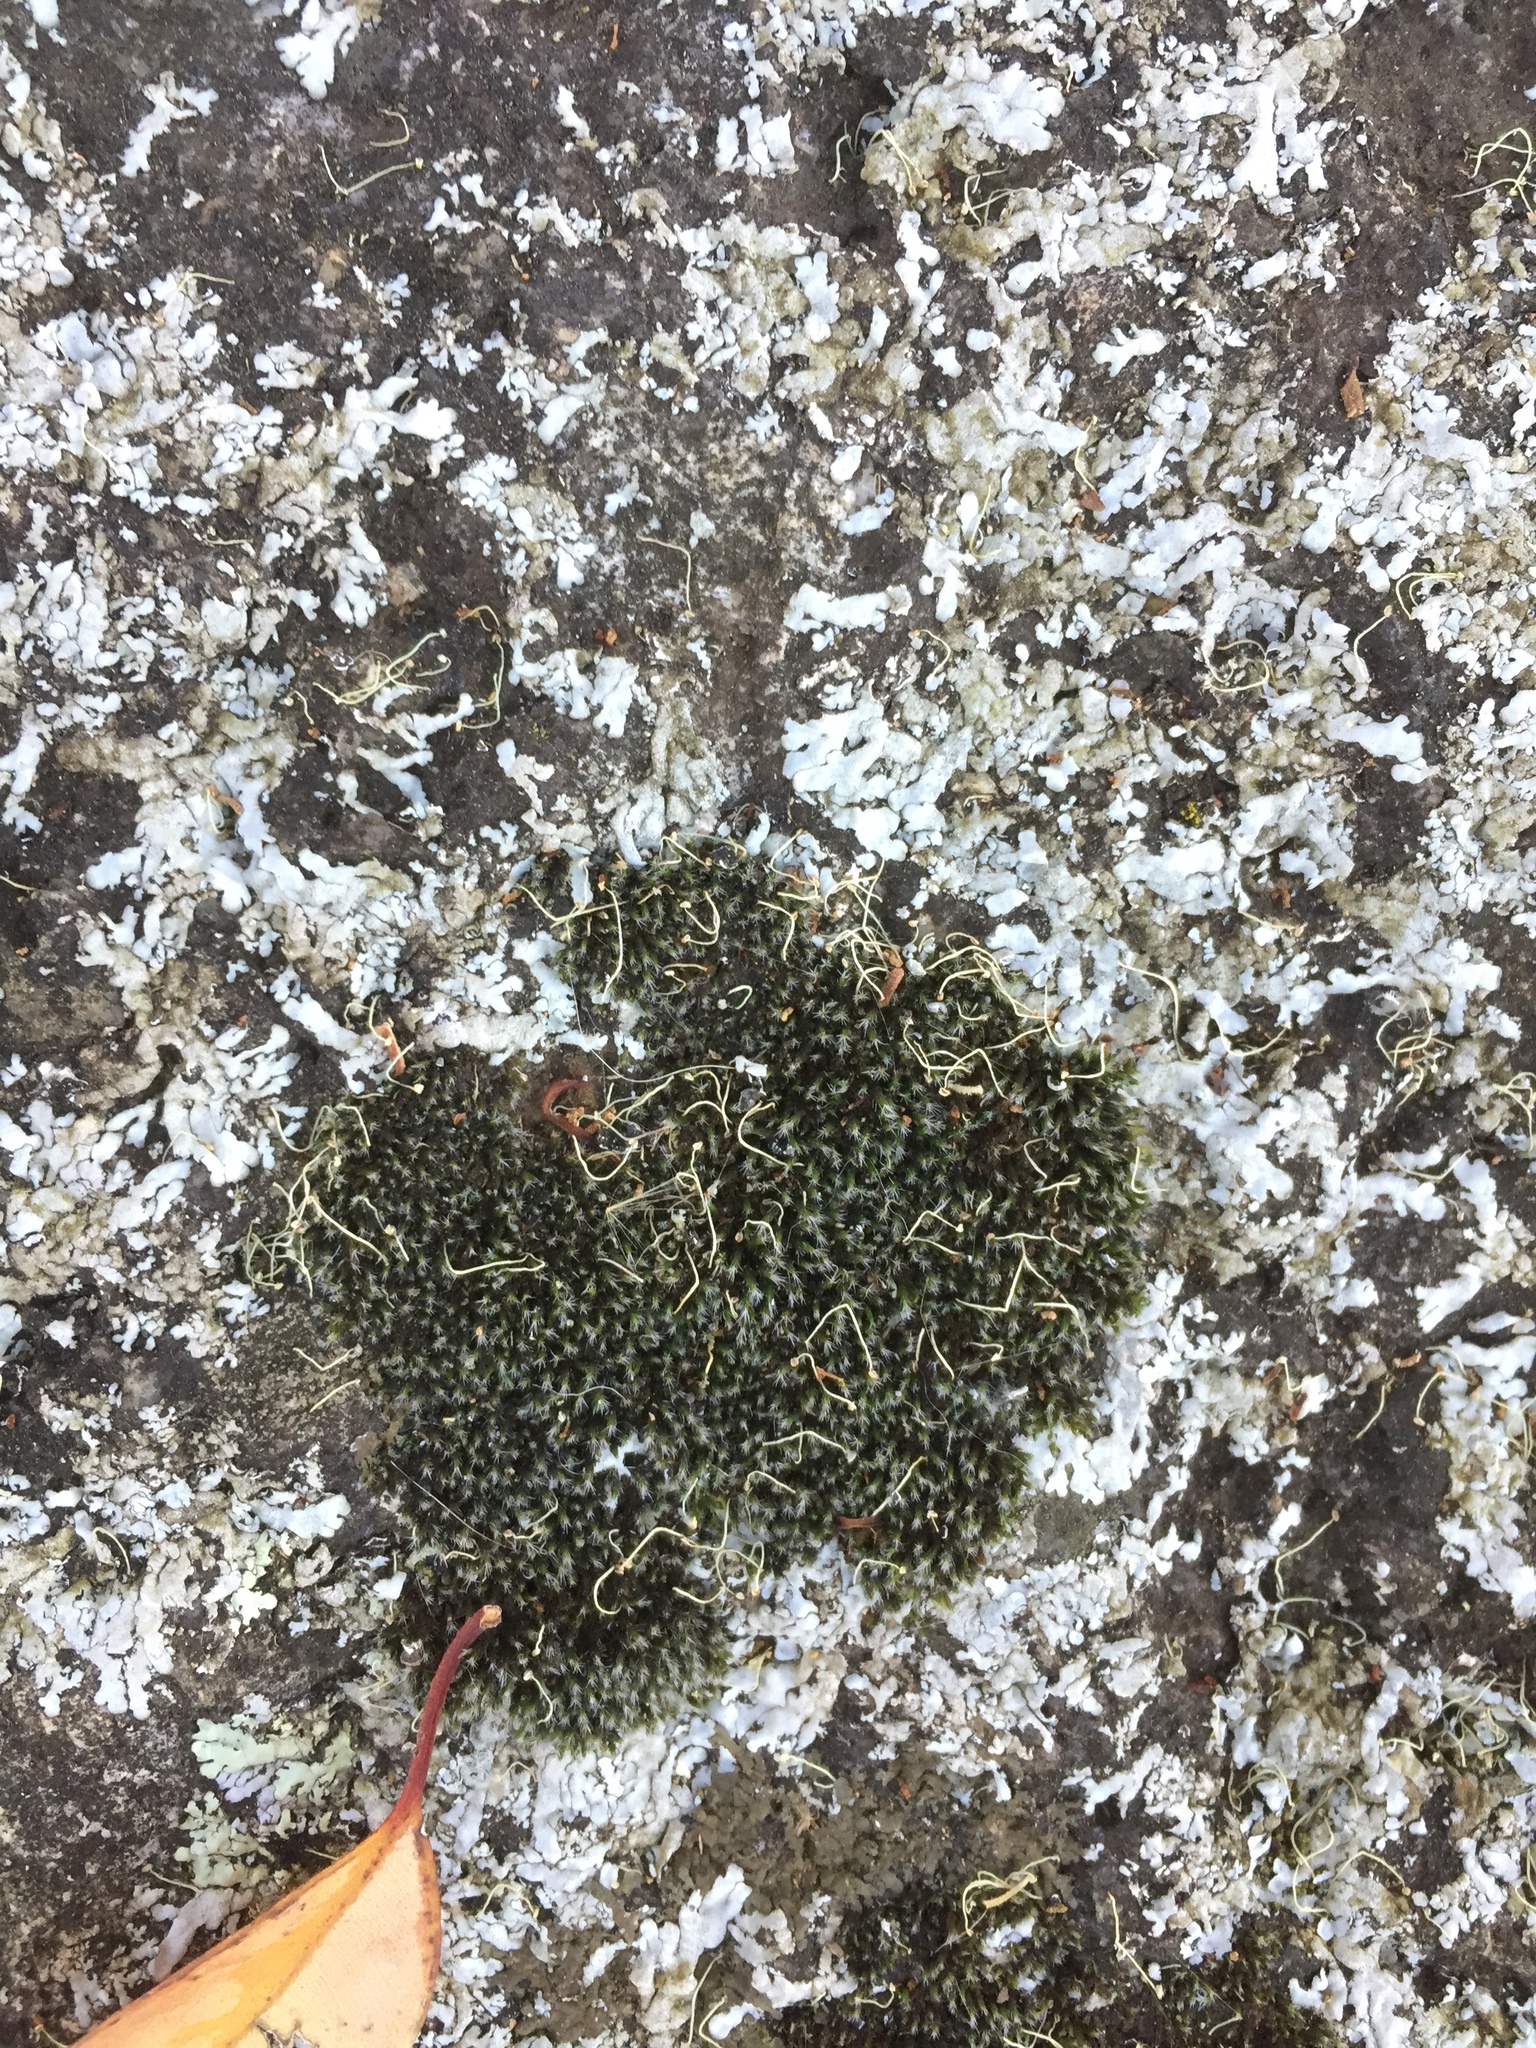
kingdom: Plantae
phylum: Bryophyta
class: Bryopsida
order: Grimmiales
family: Grimmiaceae
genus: Grimmia
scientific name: Grimmia laevigata
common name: Hoary grimmia
